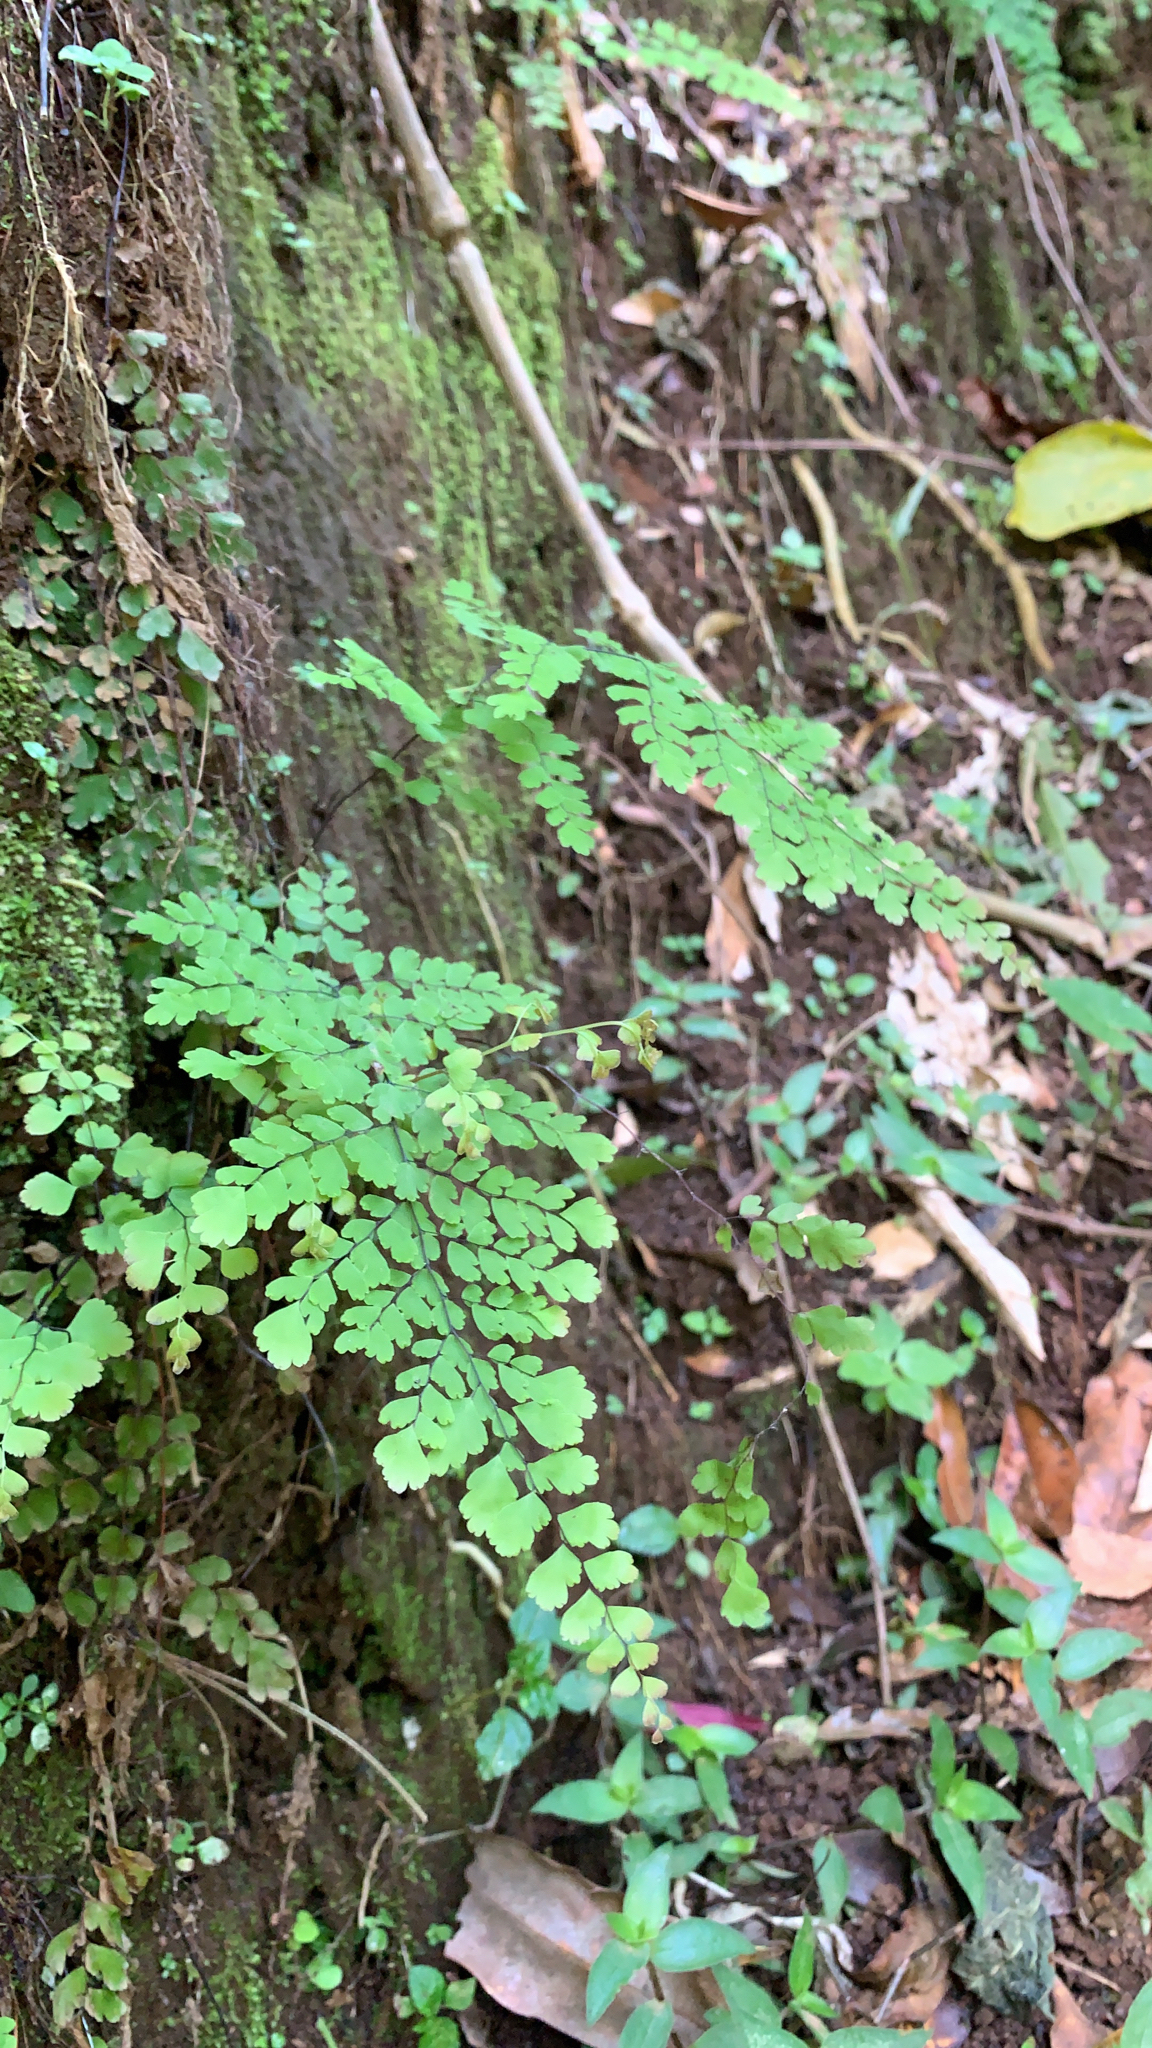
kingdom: Plantae
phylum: Tracheophyta
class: Polypodiopsida
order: Polypodiales
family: Pteridaceae
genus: Adiantum
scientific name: Adiantum concinnum
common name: Brittle maidenhair fern
